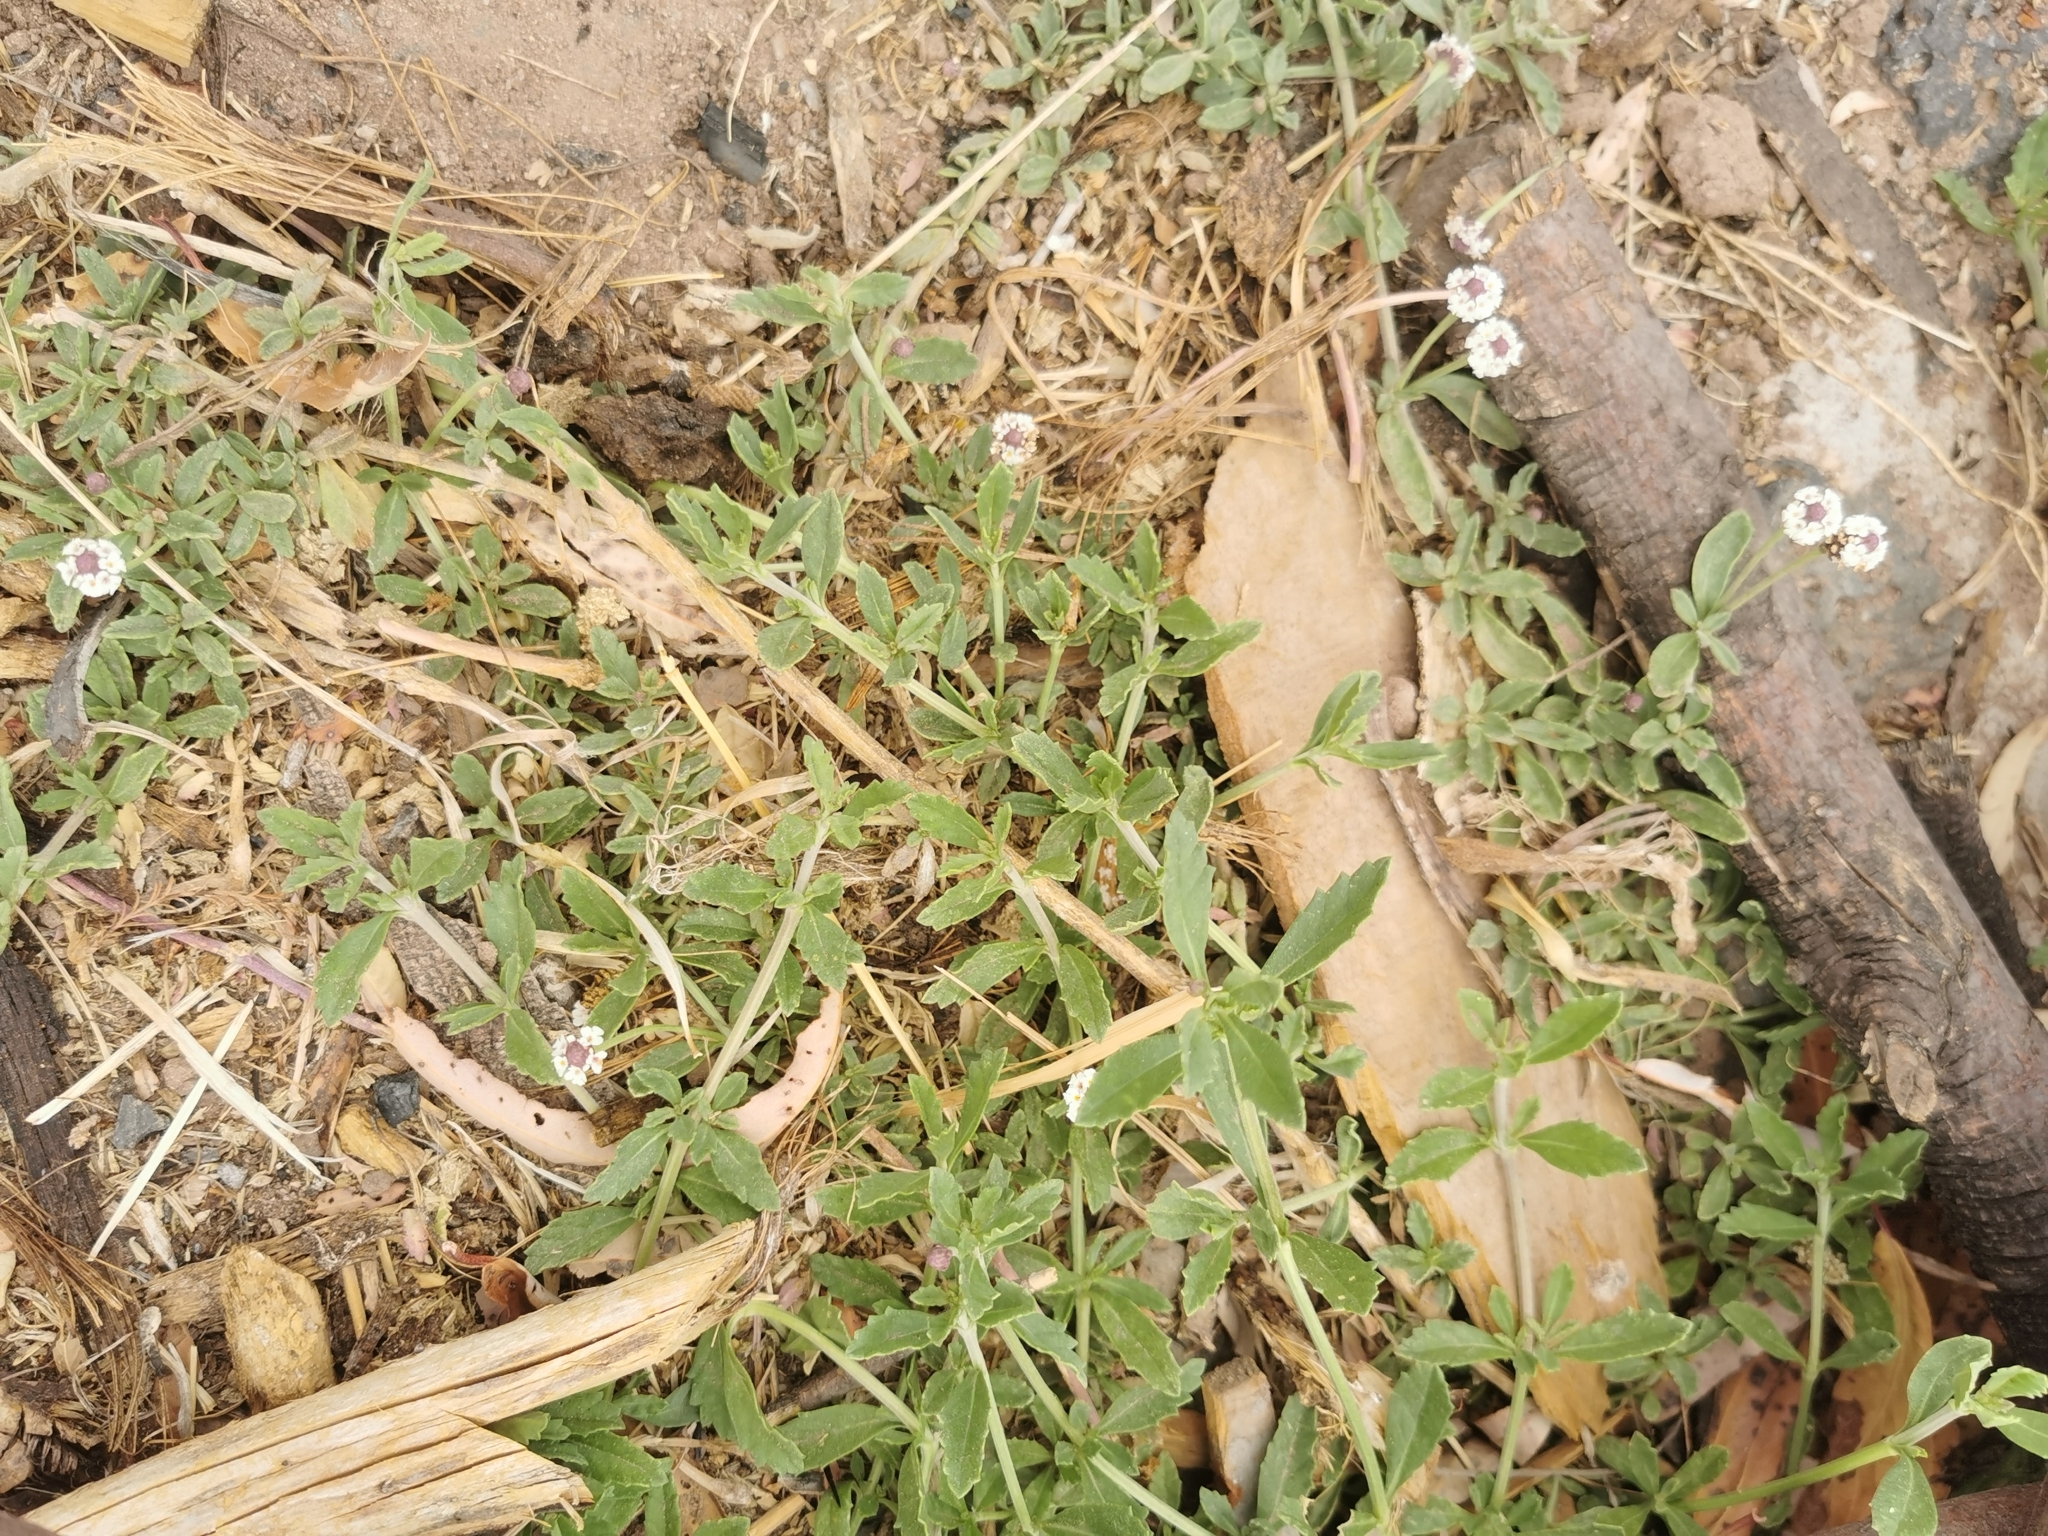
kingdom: Plantae
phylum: Tracheophyta
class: Magnoliopsida
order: Lamiales
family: Verbenaceae
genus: Phyla
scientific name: Phyla nodiflora
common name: Frogfruit
